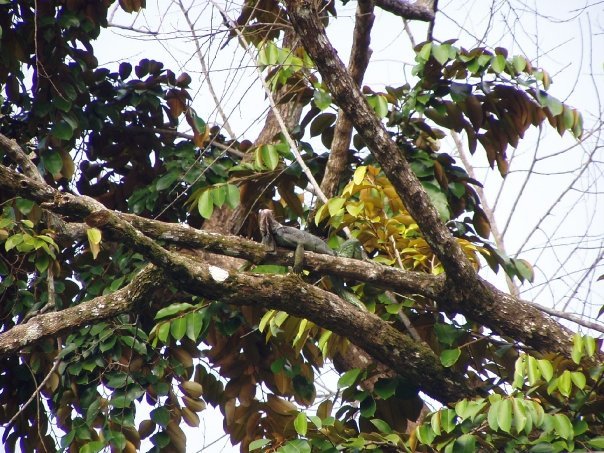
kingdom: Animalia
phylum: Chordata
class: Squamata
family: Iguanidae
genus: Iguana
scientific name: Iguana iguana
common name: Green iguana
